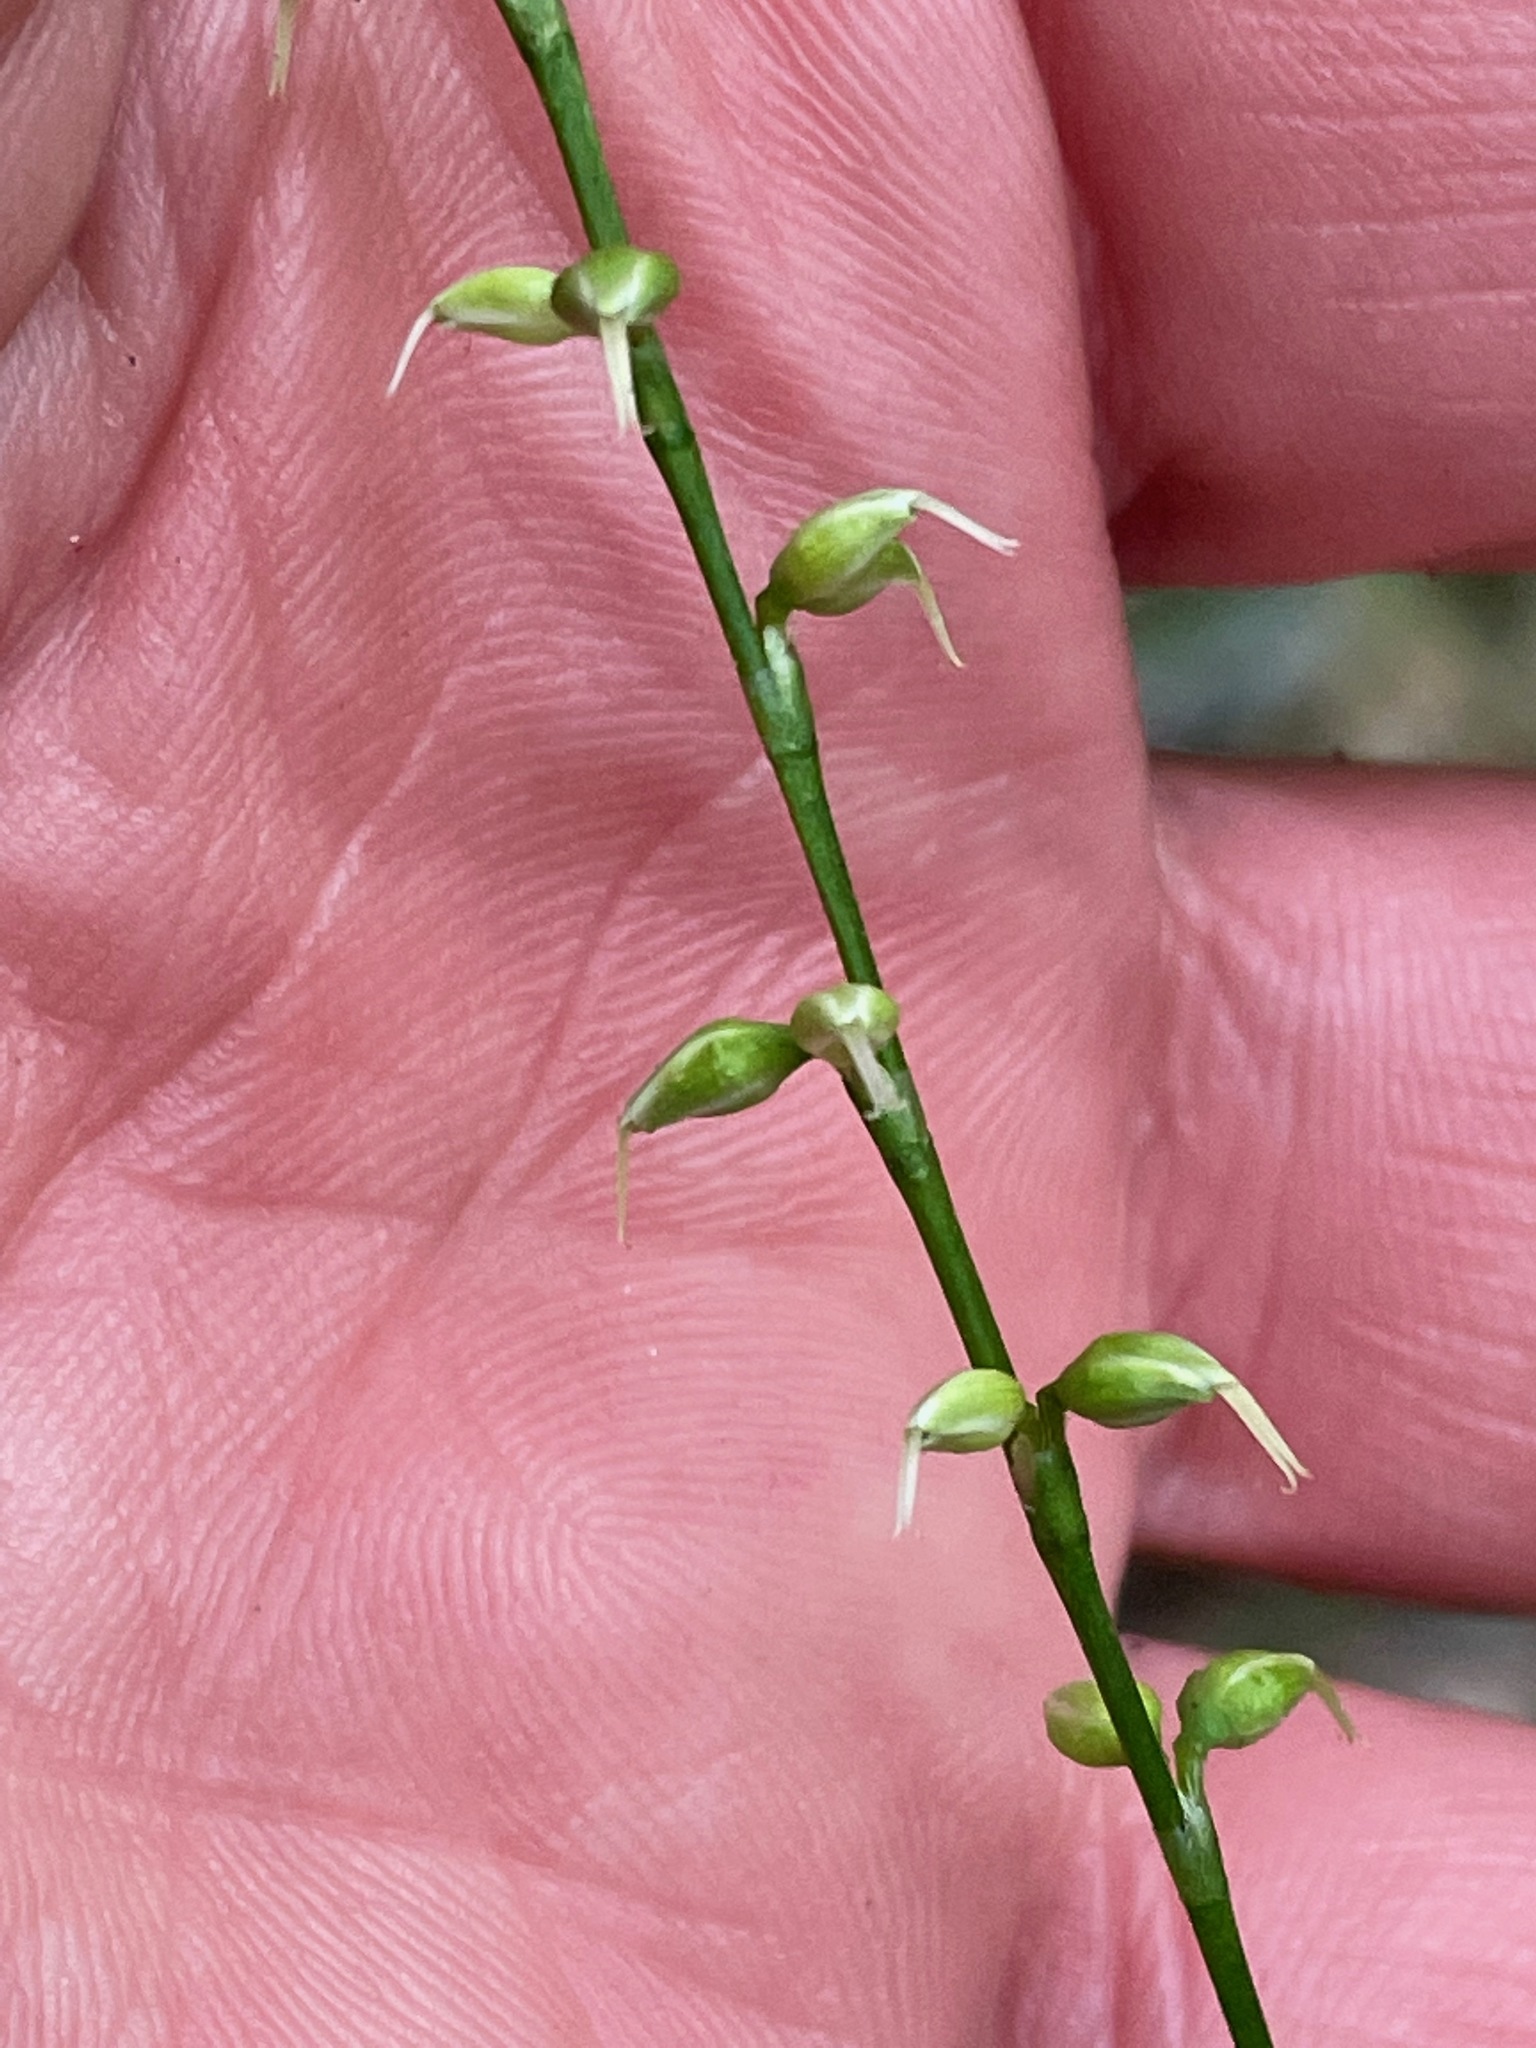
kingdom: Plantae
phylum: Tracheophyta
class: Magnoliopsida
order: Caryophyllales
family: Polygonaceae
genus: Persicaria
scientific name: Persicaria virginiana
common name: Jumpseed
